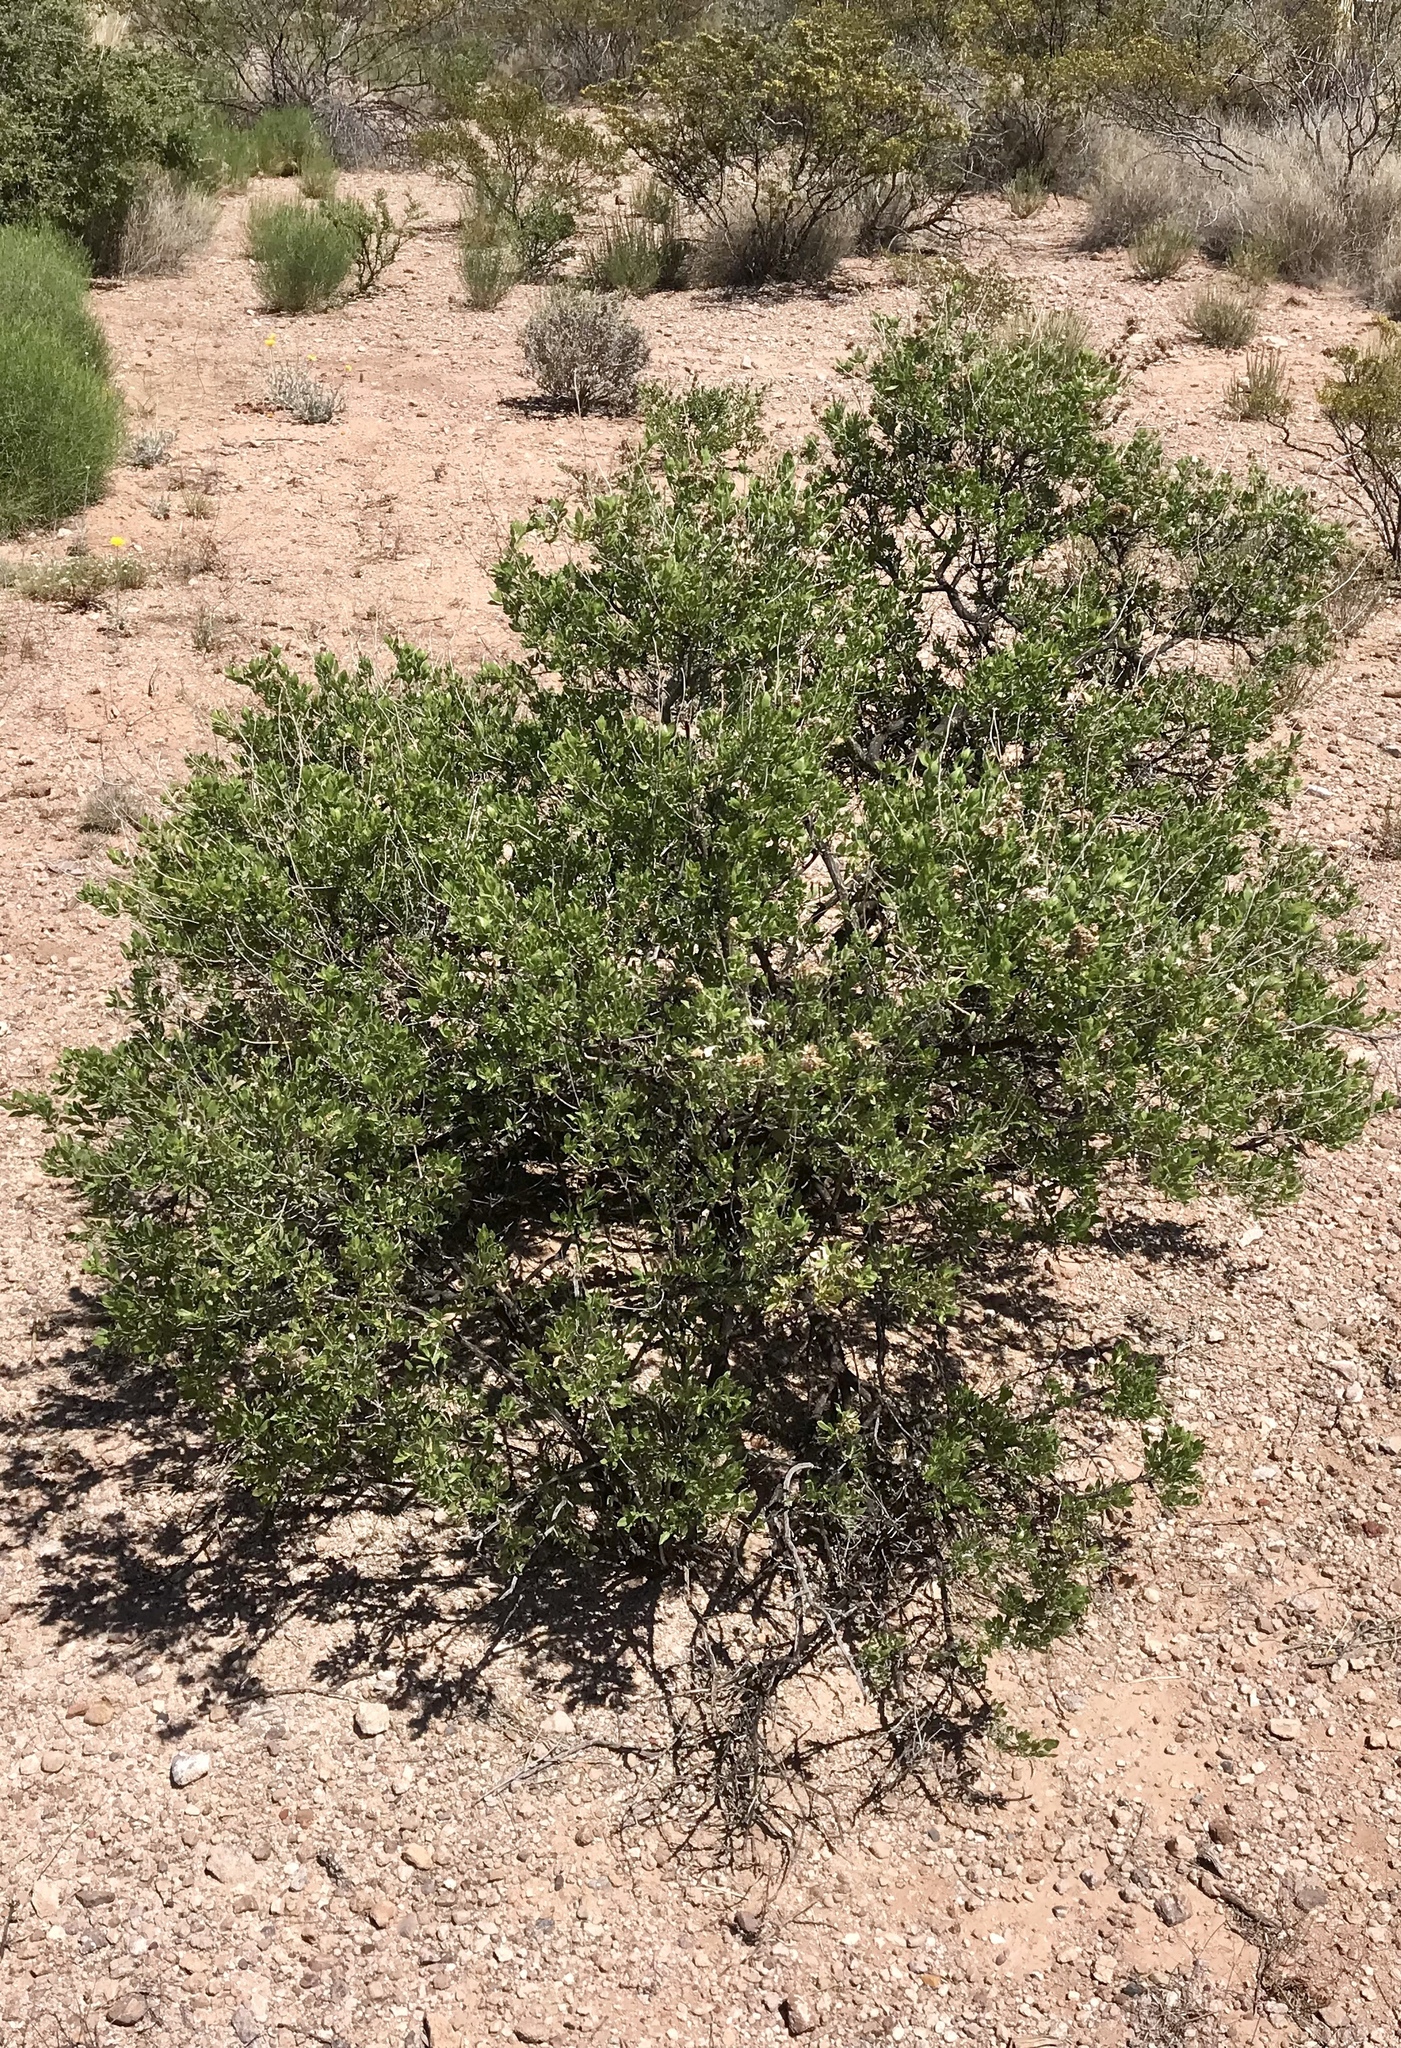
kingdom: Plantae
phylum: Tracheophyta
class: Magnoliopsida
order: Asterales
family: Asteraceae
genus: Flourensia
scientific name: Flourensia cernua
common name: Varnishbush
